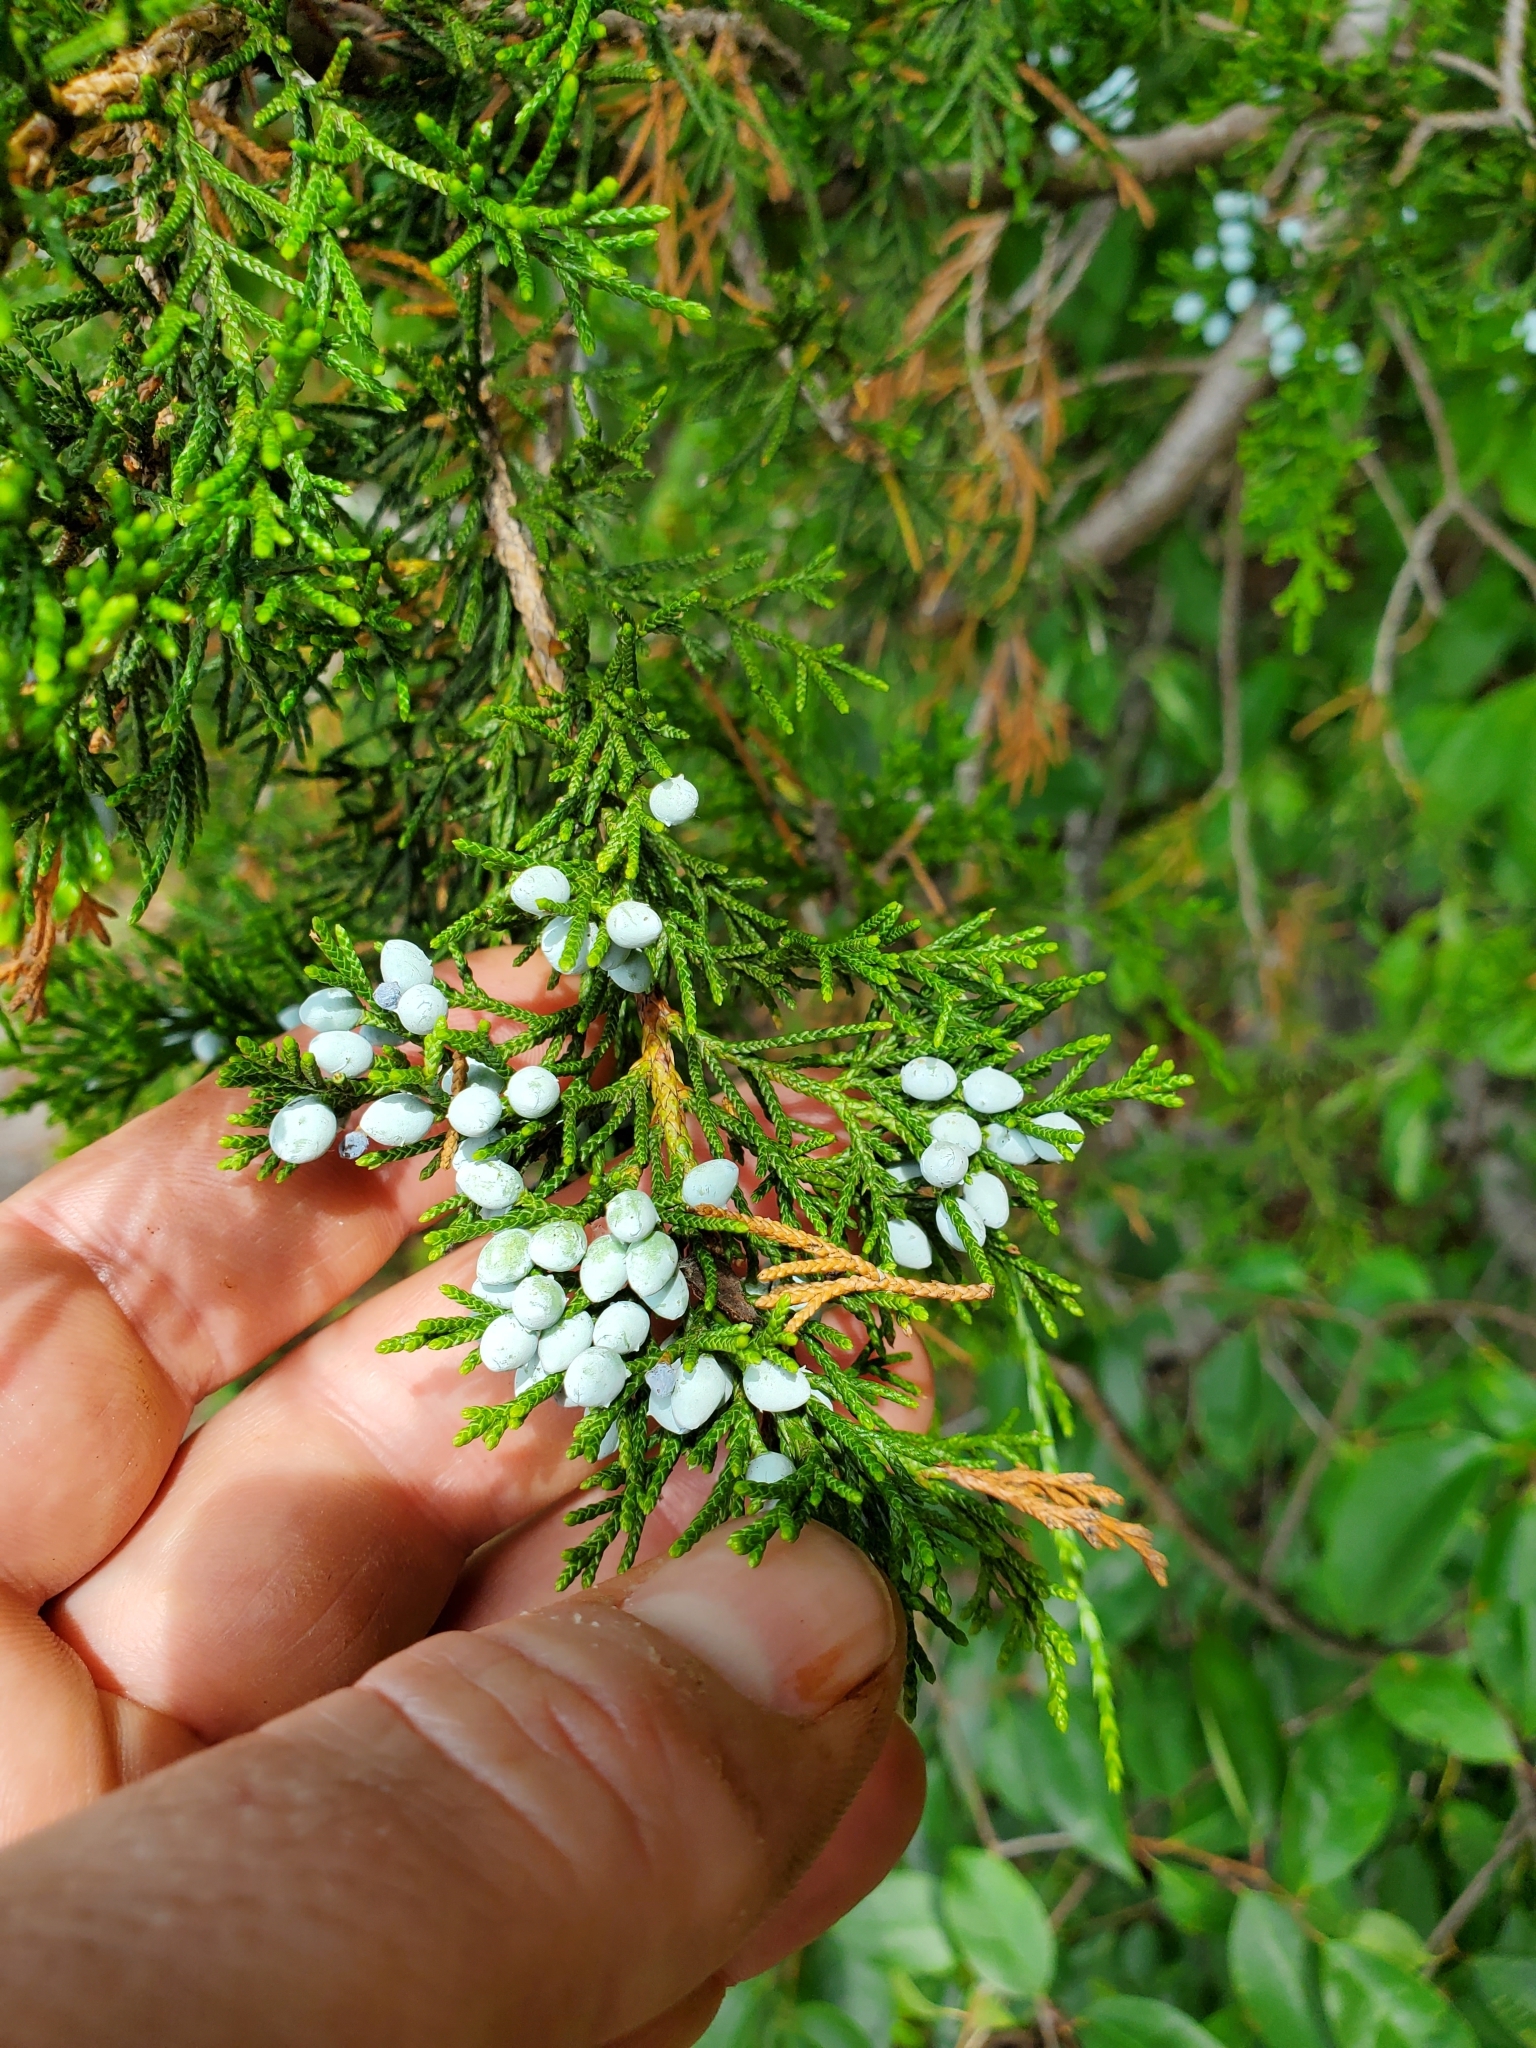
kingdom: Plantae
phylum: Tracheophyta
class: Pinopsida
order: Pinales
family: Cupressaceae
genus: Juniperus
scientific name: Juniperus virginiana
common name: Red juniper
